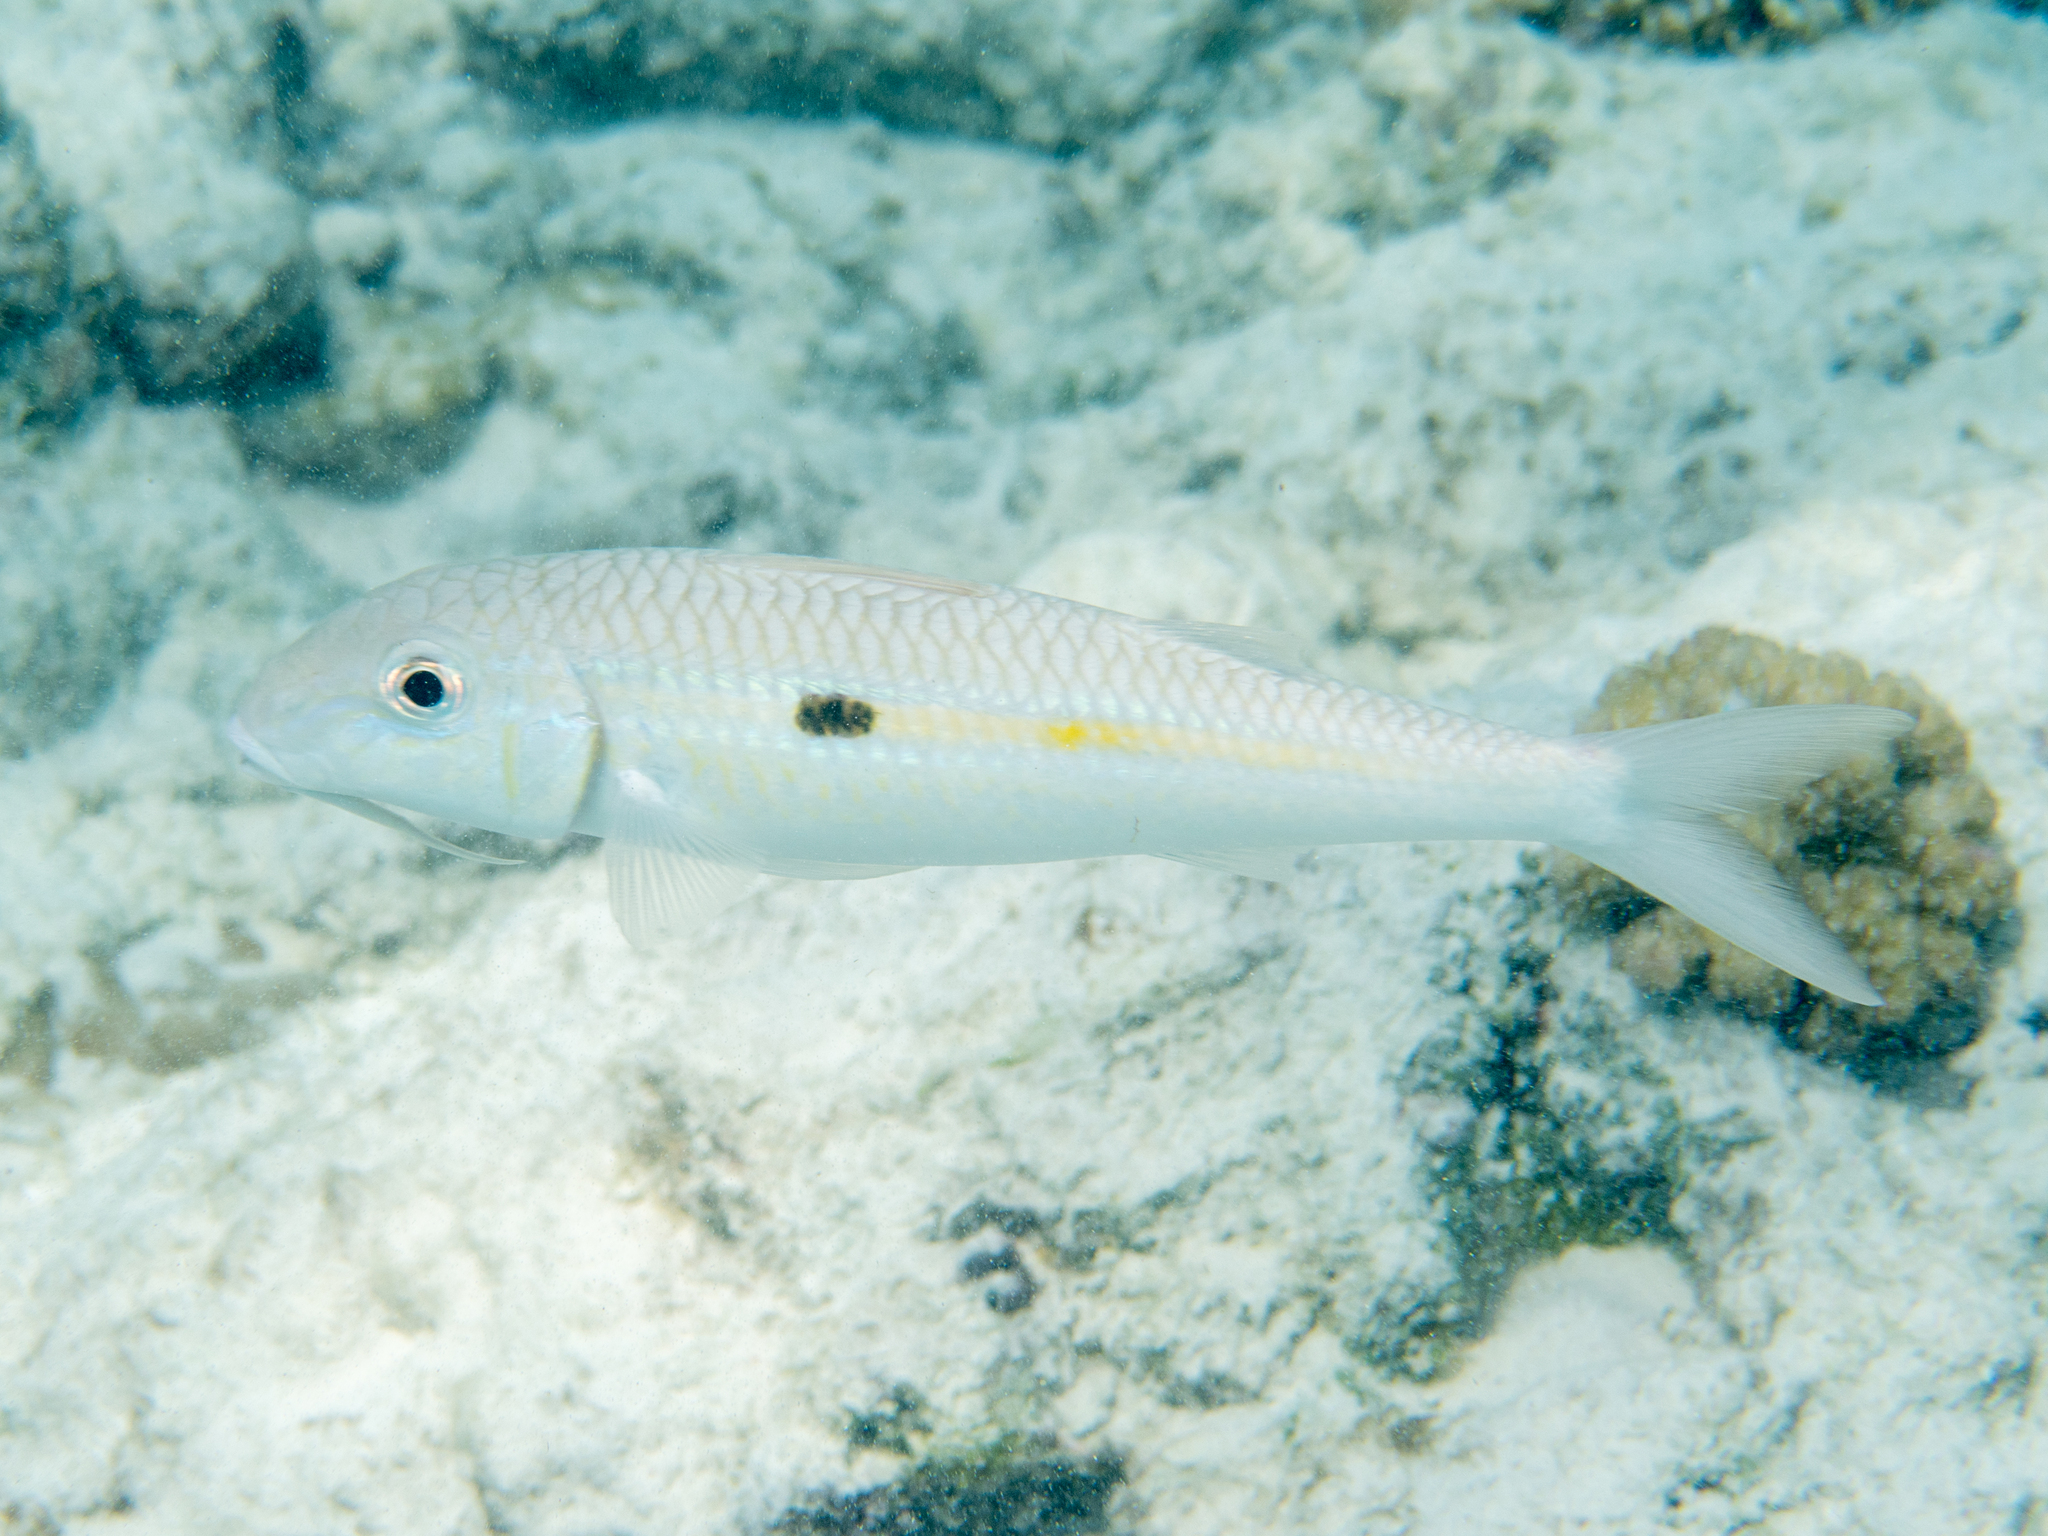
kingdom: Animalia
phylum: Chordata
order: Perciformes
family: Mullidae
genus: Mulloidichthys
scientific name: Mulloidichthys flavolineatus
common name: Yellowstripe goatfish
